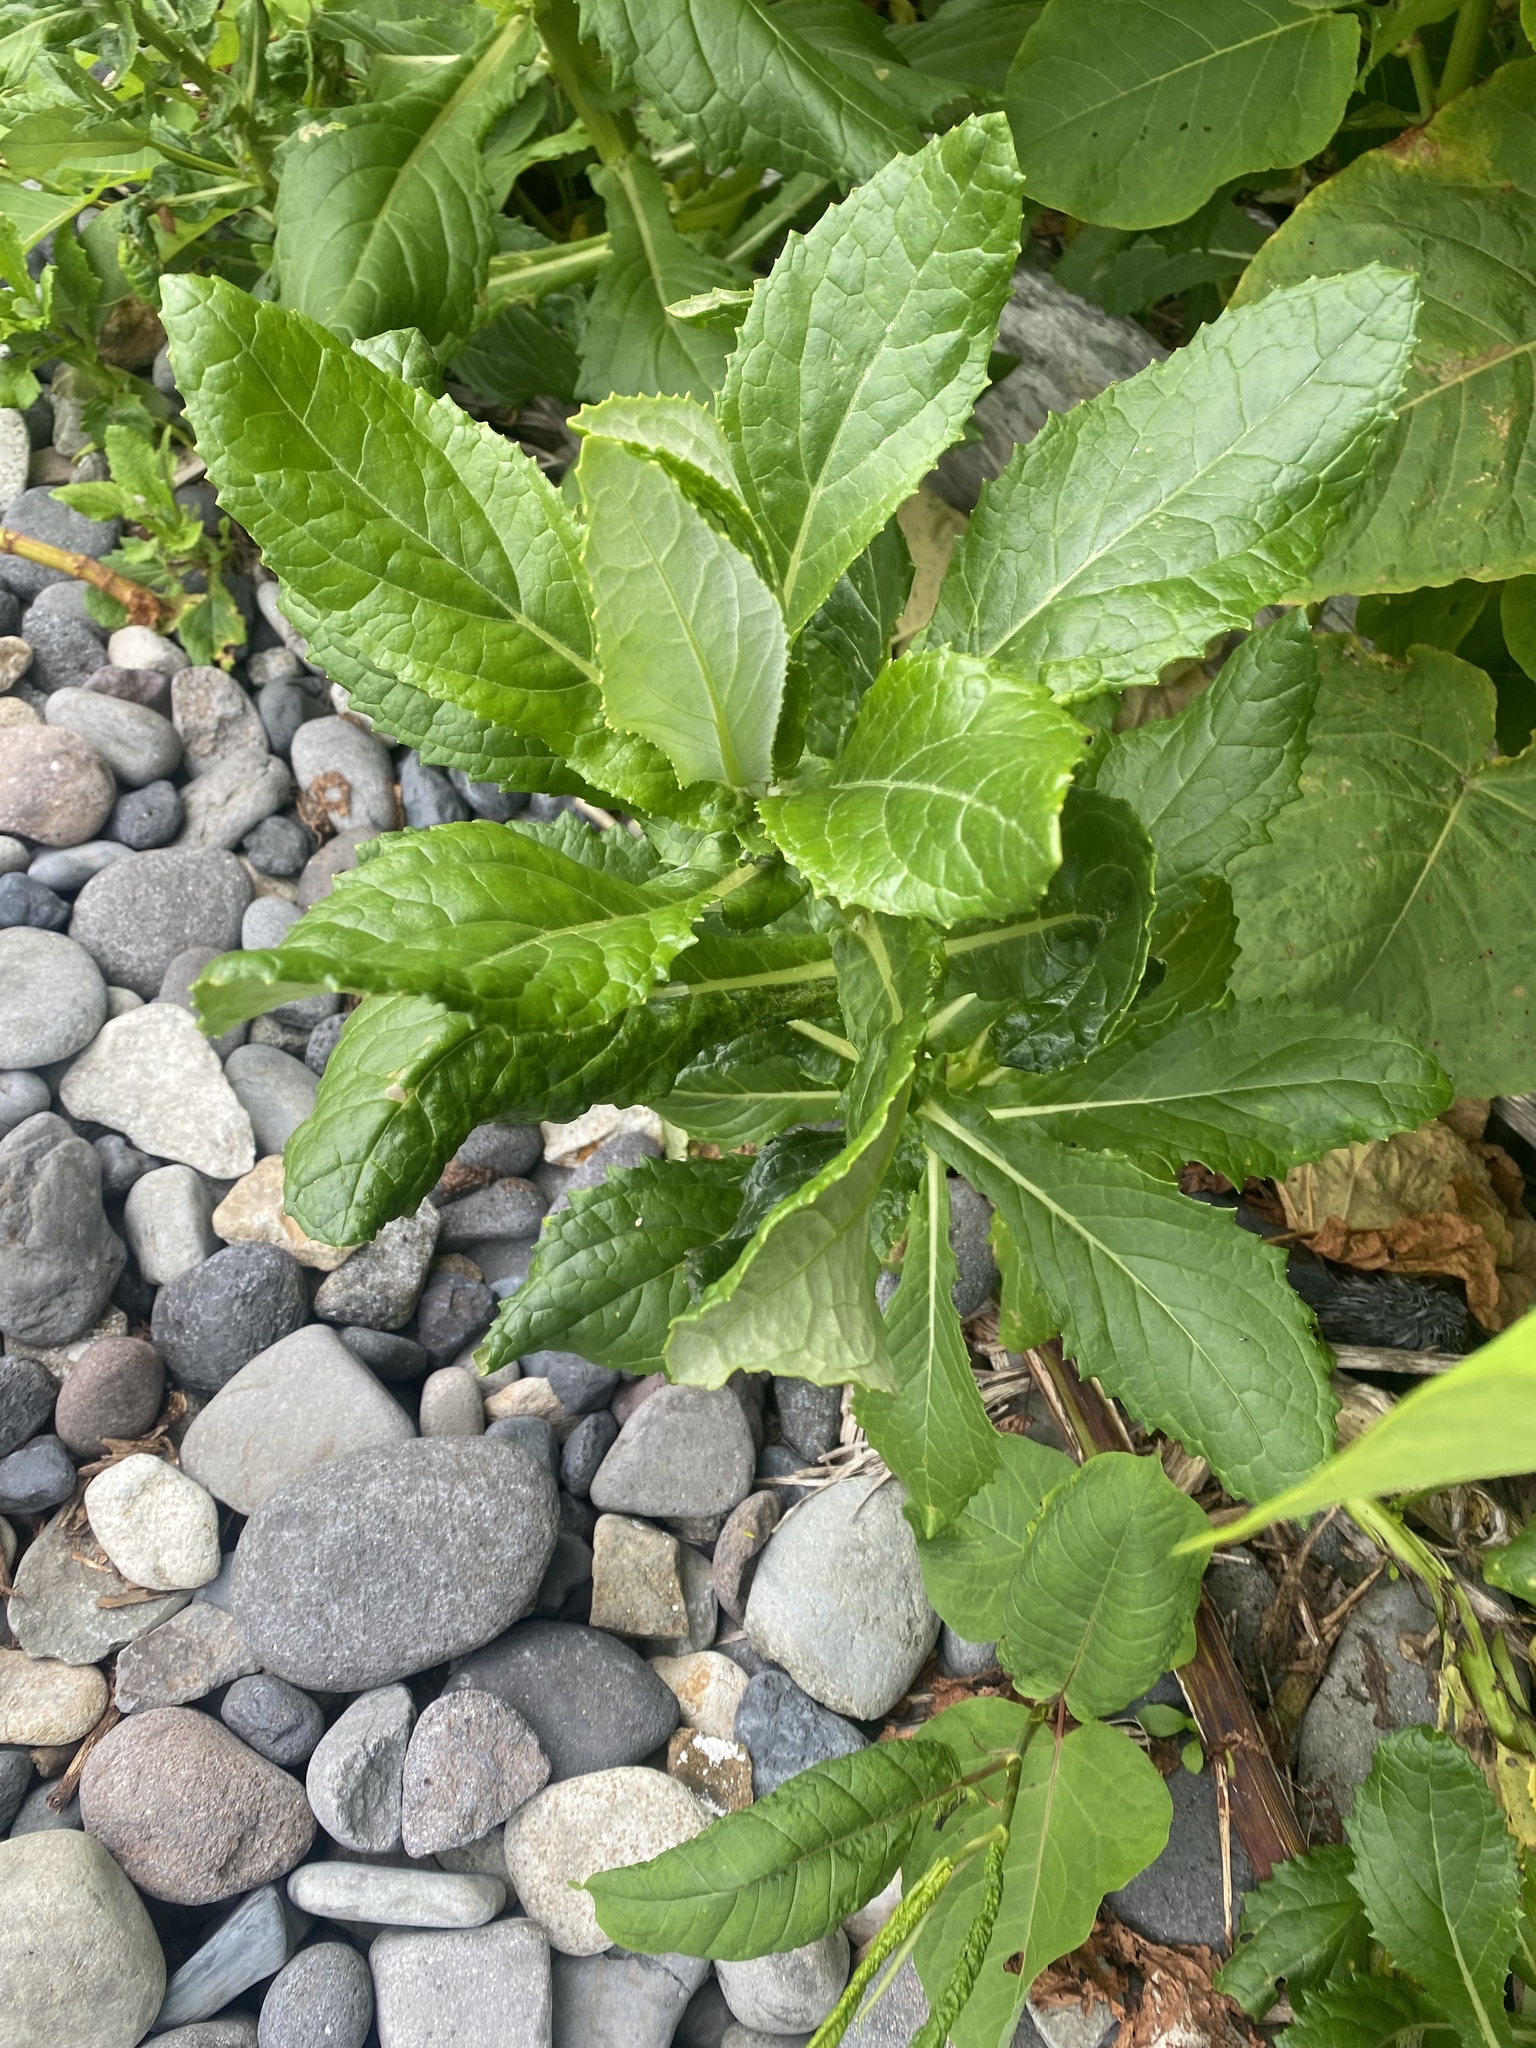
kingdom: Plantae
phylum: Tracheophyta
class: Magnoliopsida
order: Asterales
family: Asteraceae
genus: Jacobaea
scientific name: Jacobaea pseudoarnica
